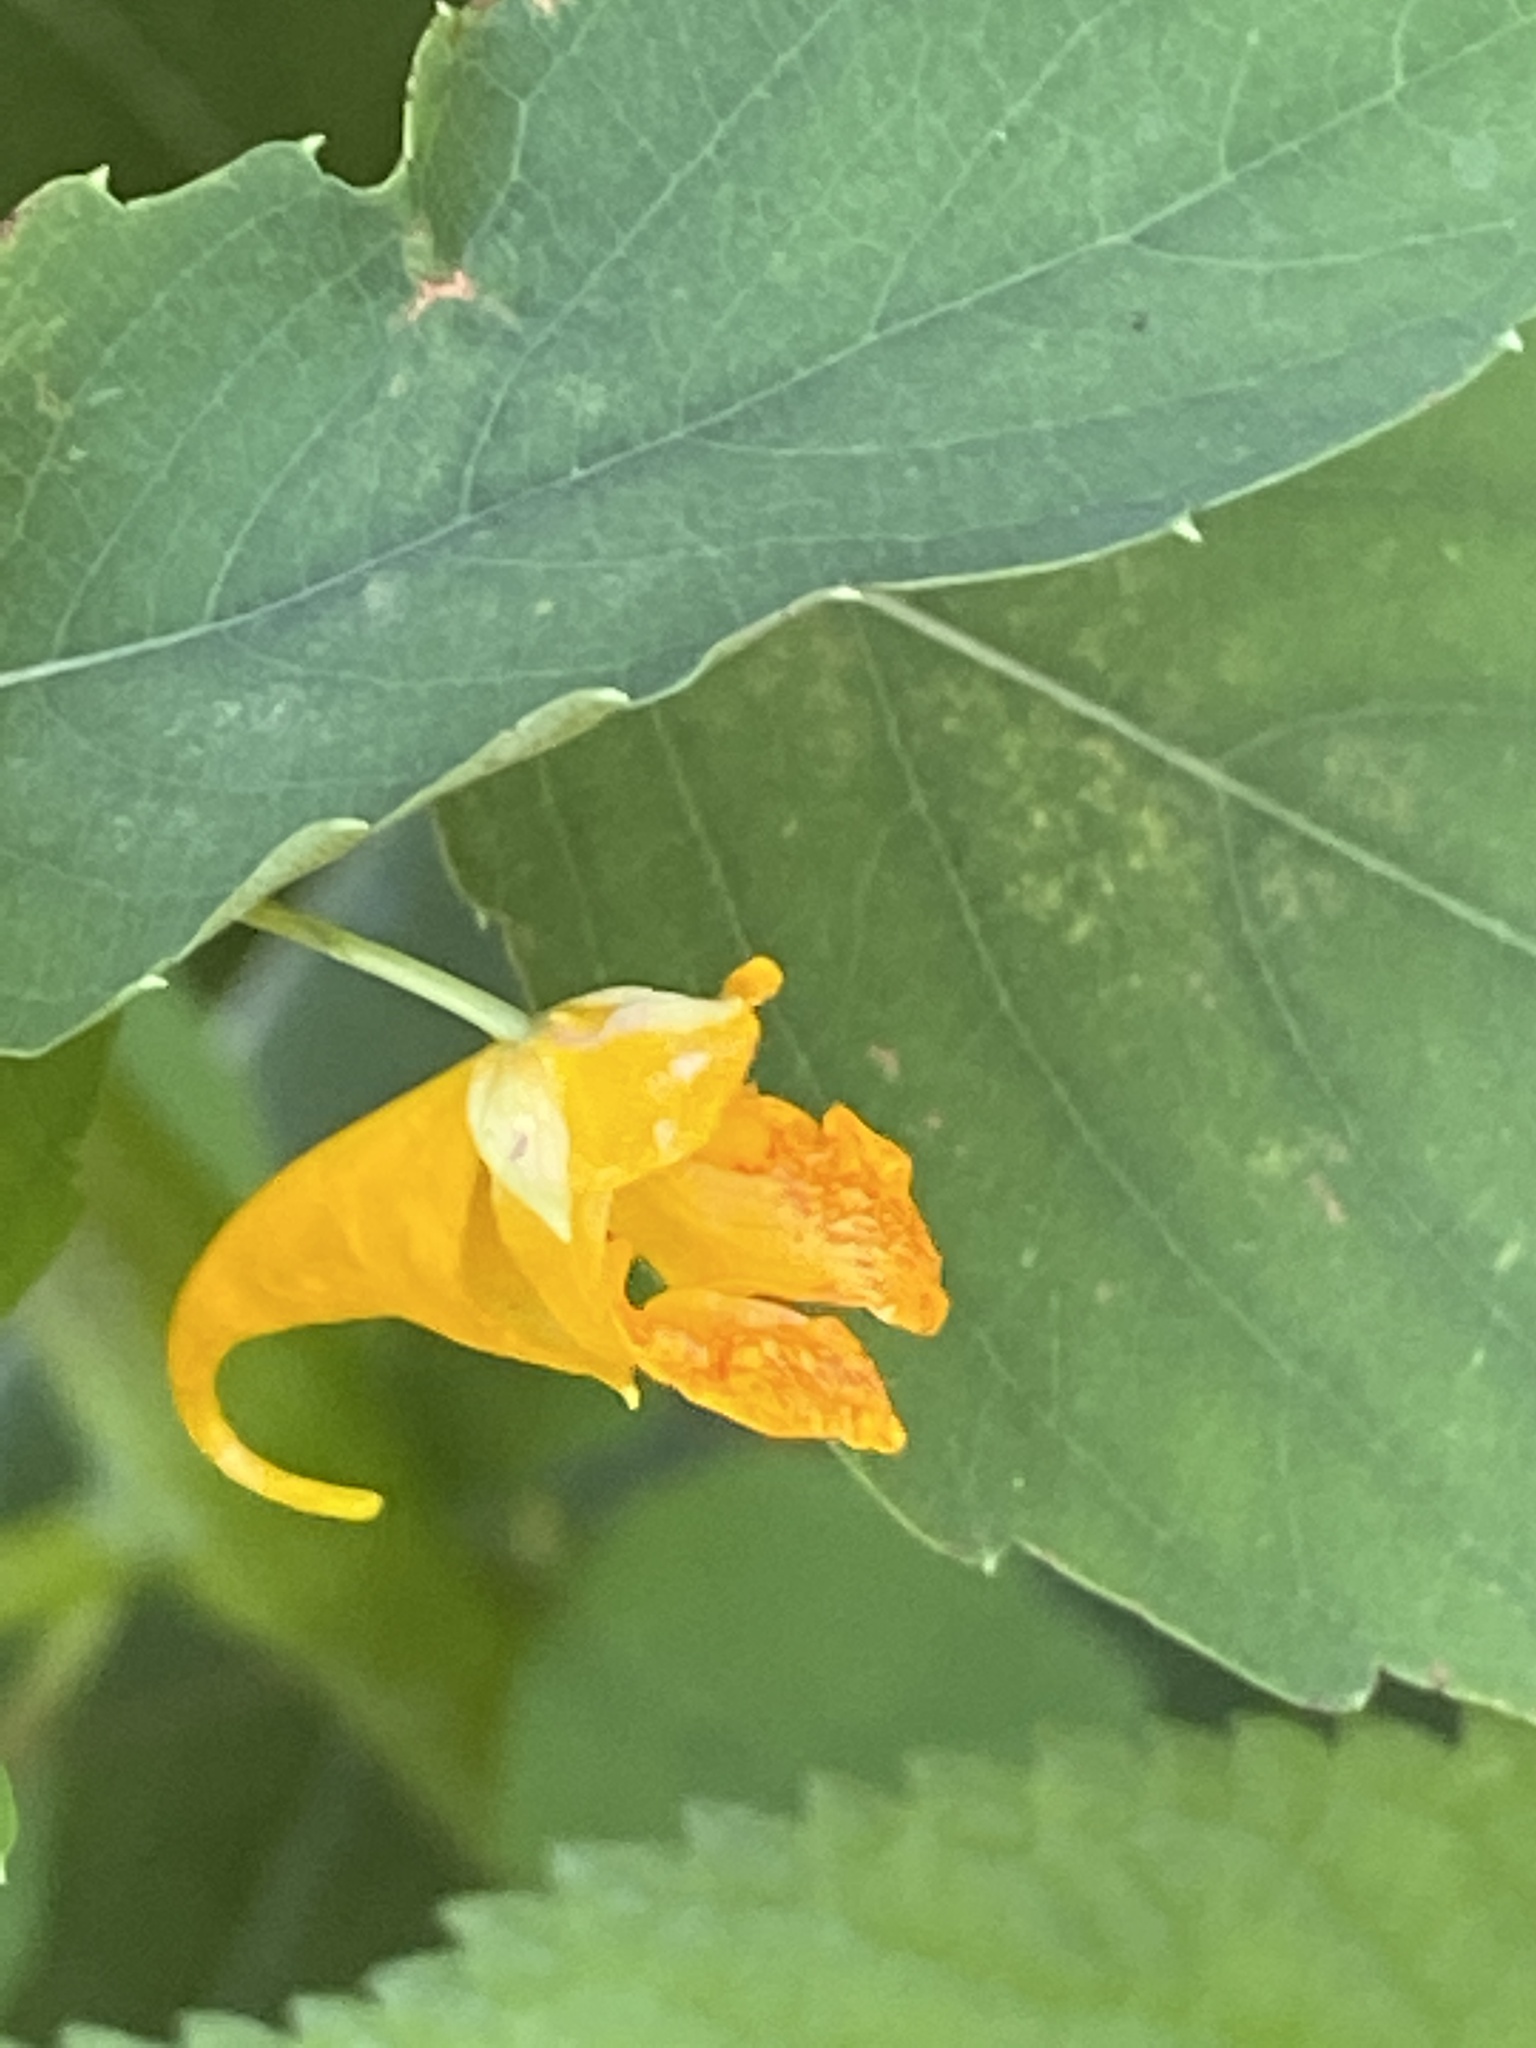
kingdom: Plantae
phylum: Tracheophyta
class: Magnoliopsida
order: Ericales
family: Balsaminaceae
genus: Impatiens
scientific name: Impatiens capensis
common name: Orange balsam
